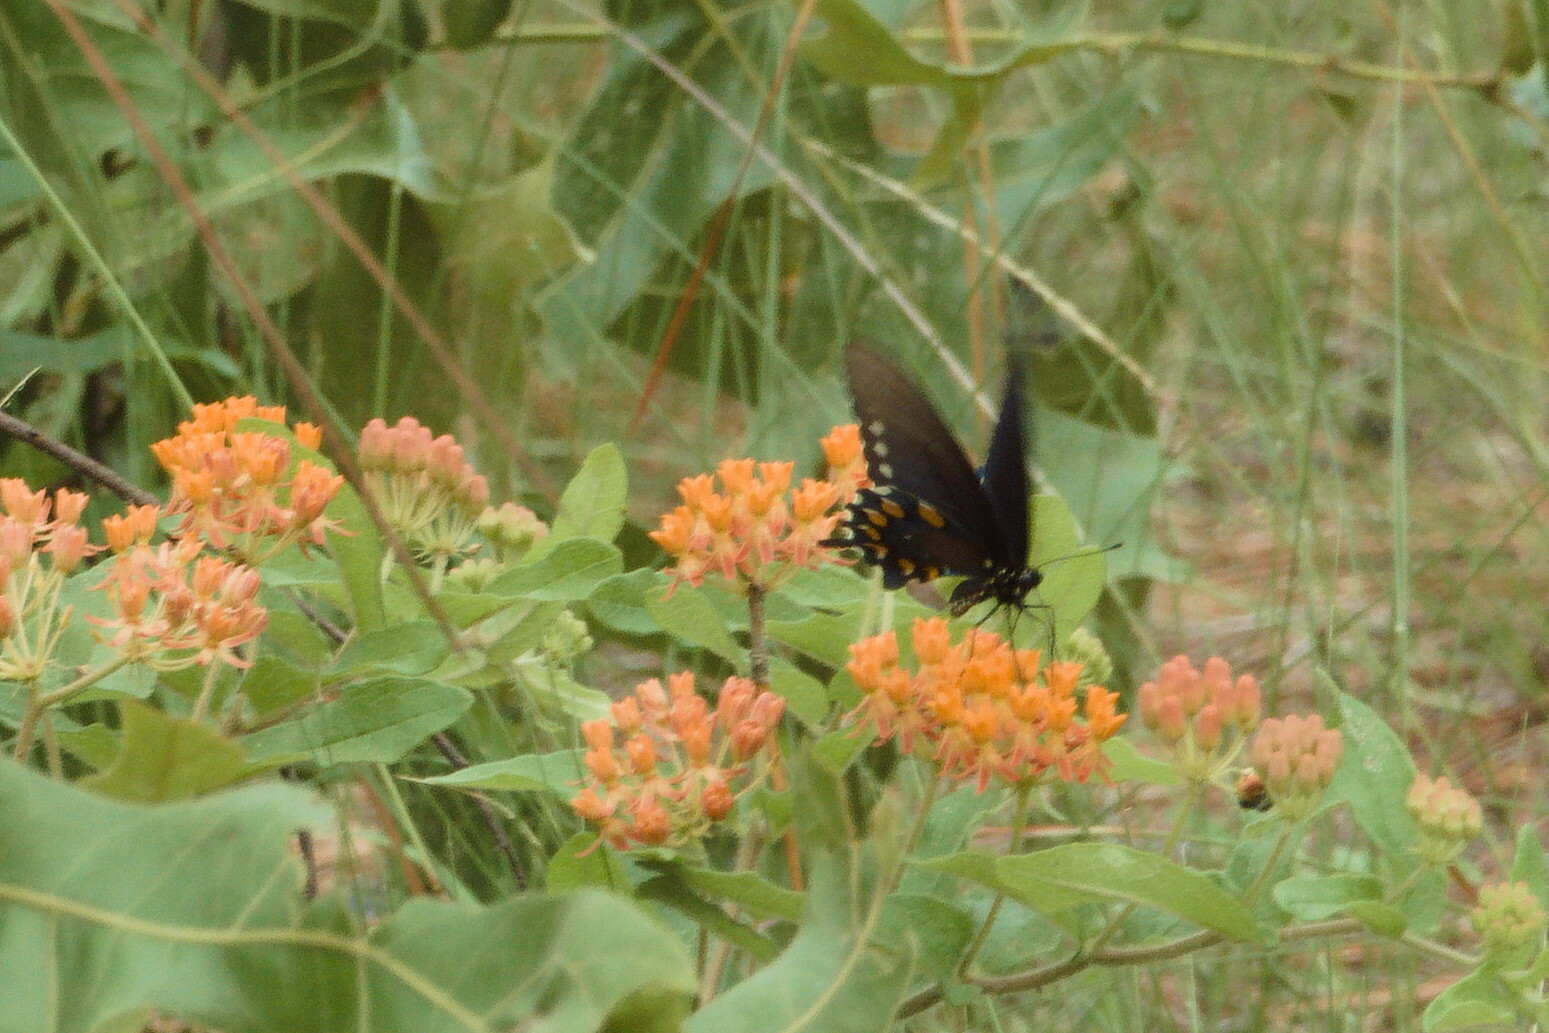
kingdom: Animalia
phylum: Arthropoda
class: Insecta
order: Lepidoptera
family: Papilionidae
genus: Battus
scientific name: Battus philenor
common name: Pipevine swallowtail
